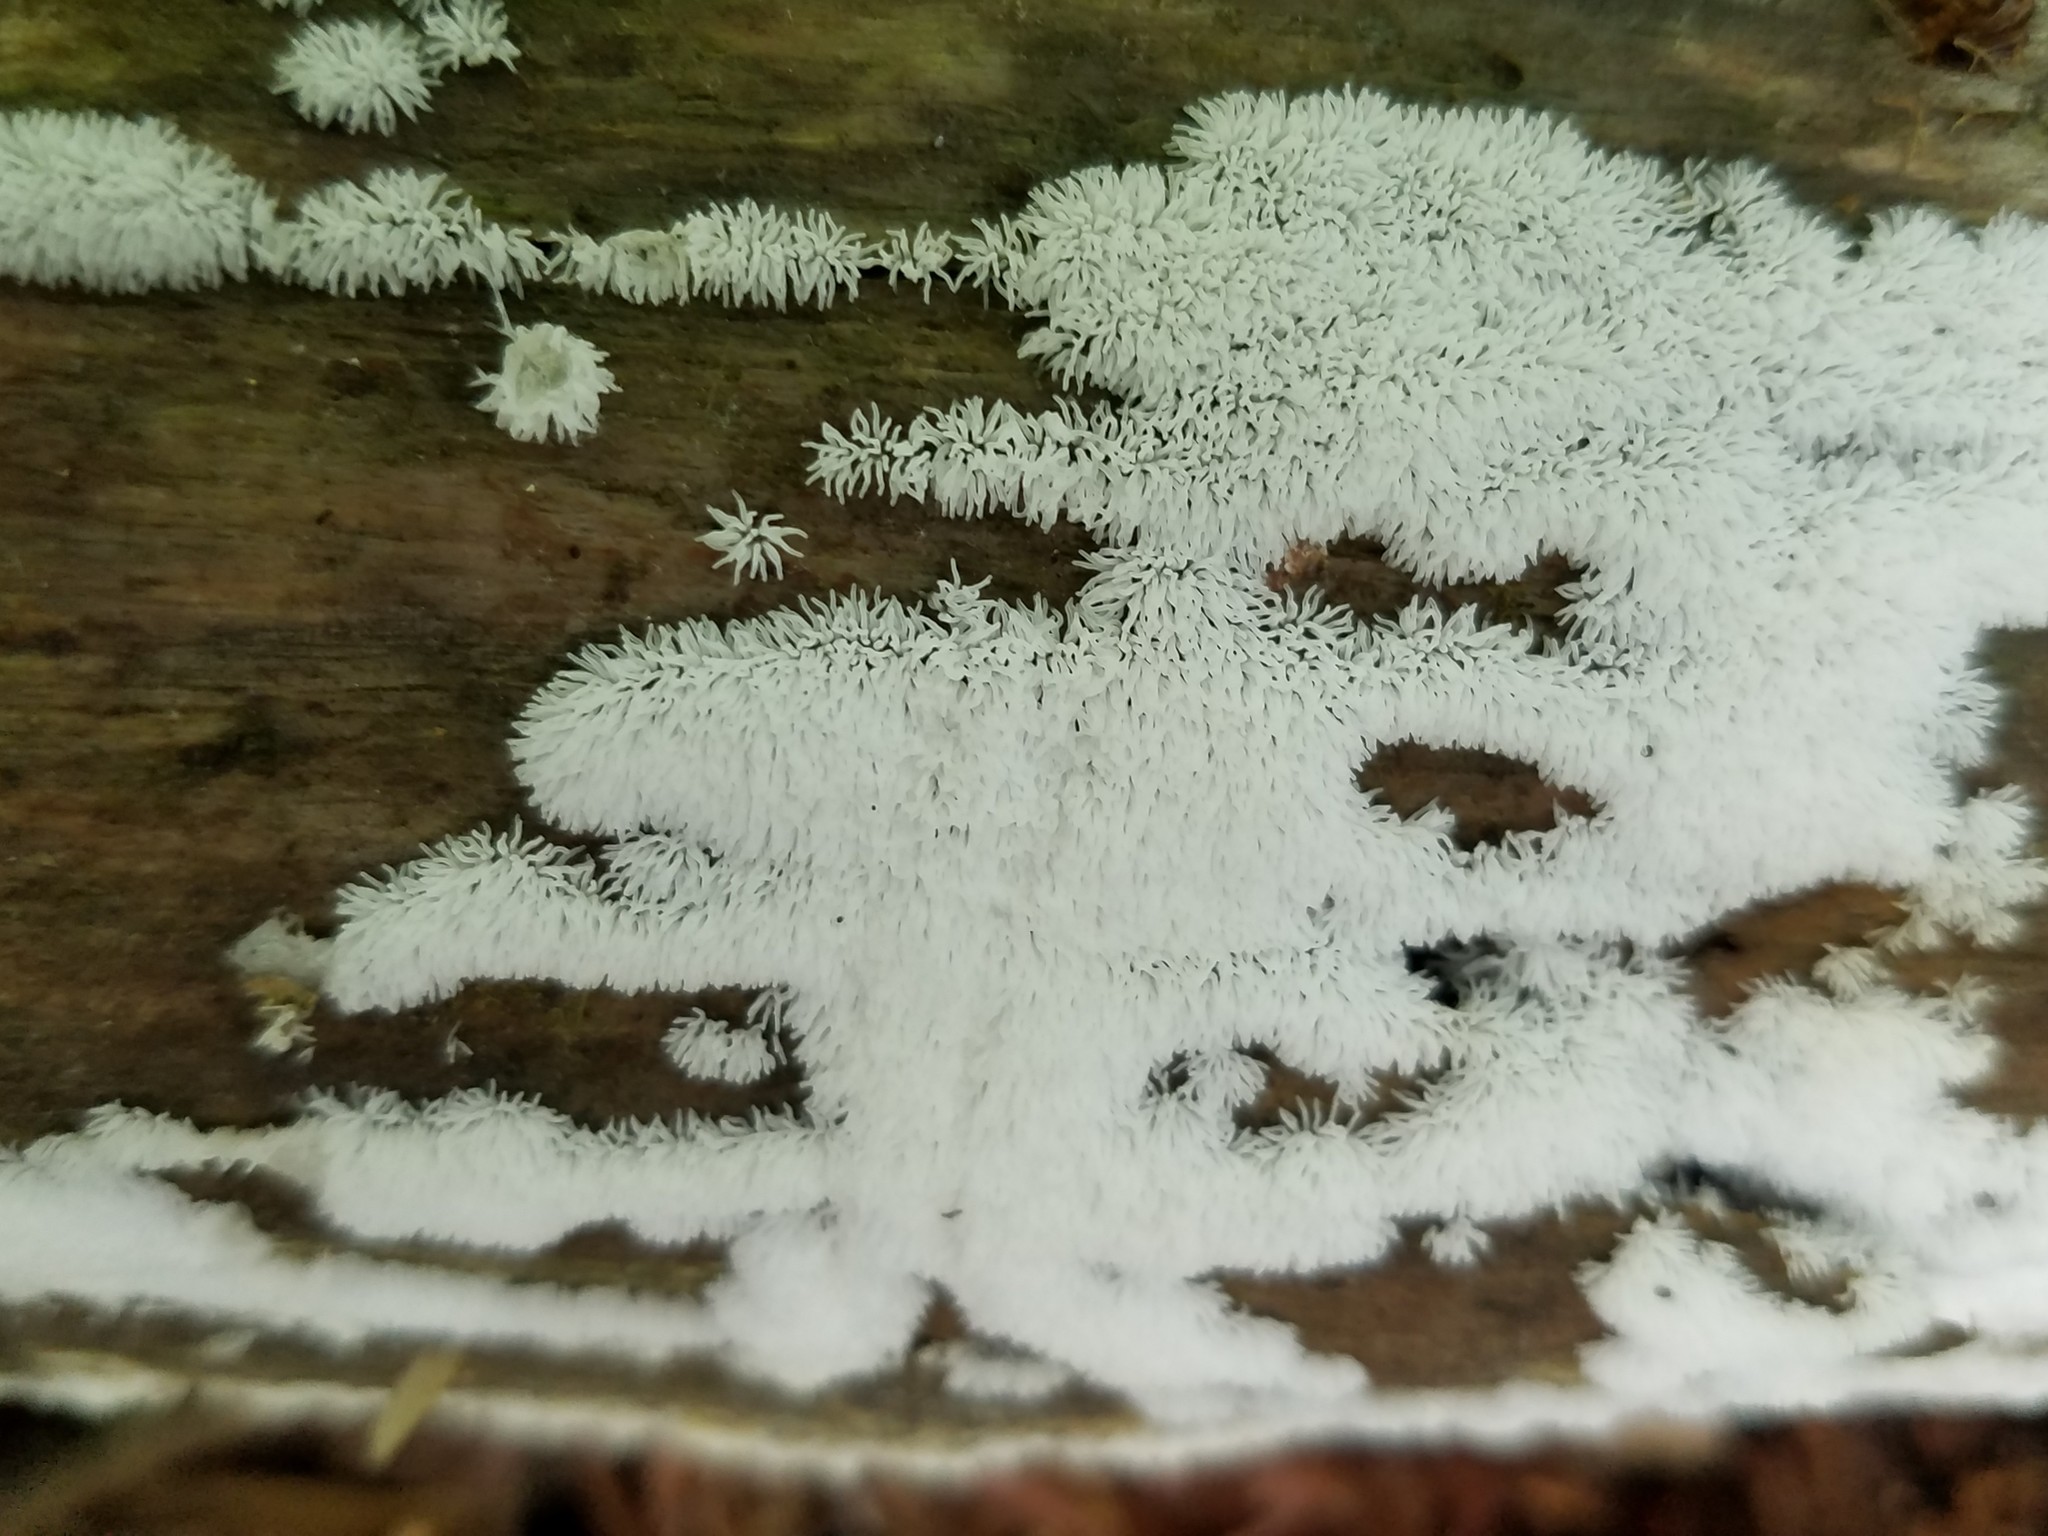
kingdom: Protozoa
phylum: Mycetozoa
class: Protosteliomycetes
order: Ceratiomyxales
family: Ceratiomyxaceae
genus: Ceratiomyxa
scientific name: Ceratiomyxa fruticulosa
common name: Honeycomb coral slime mold
